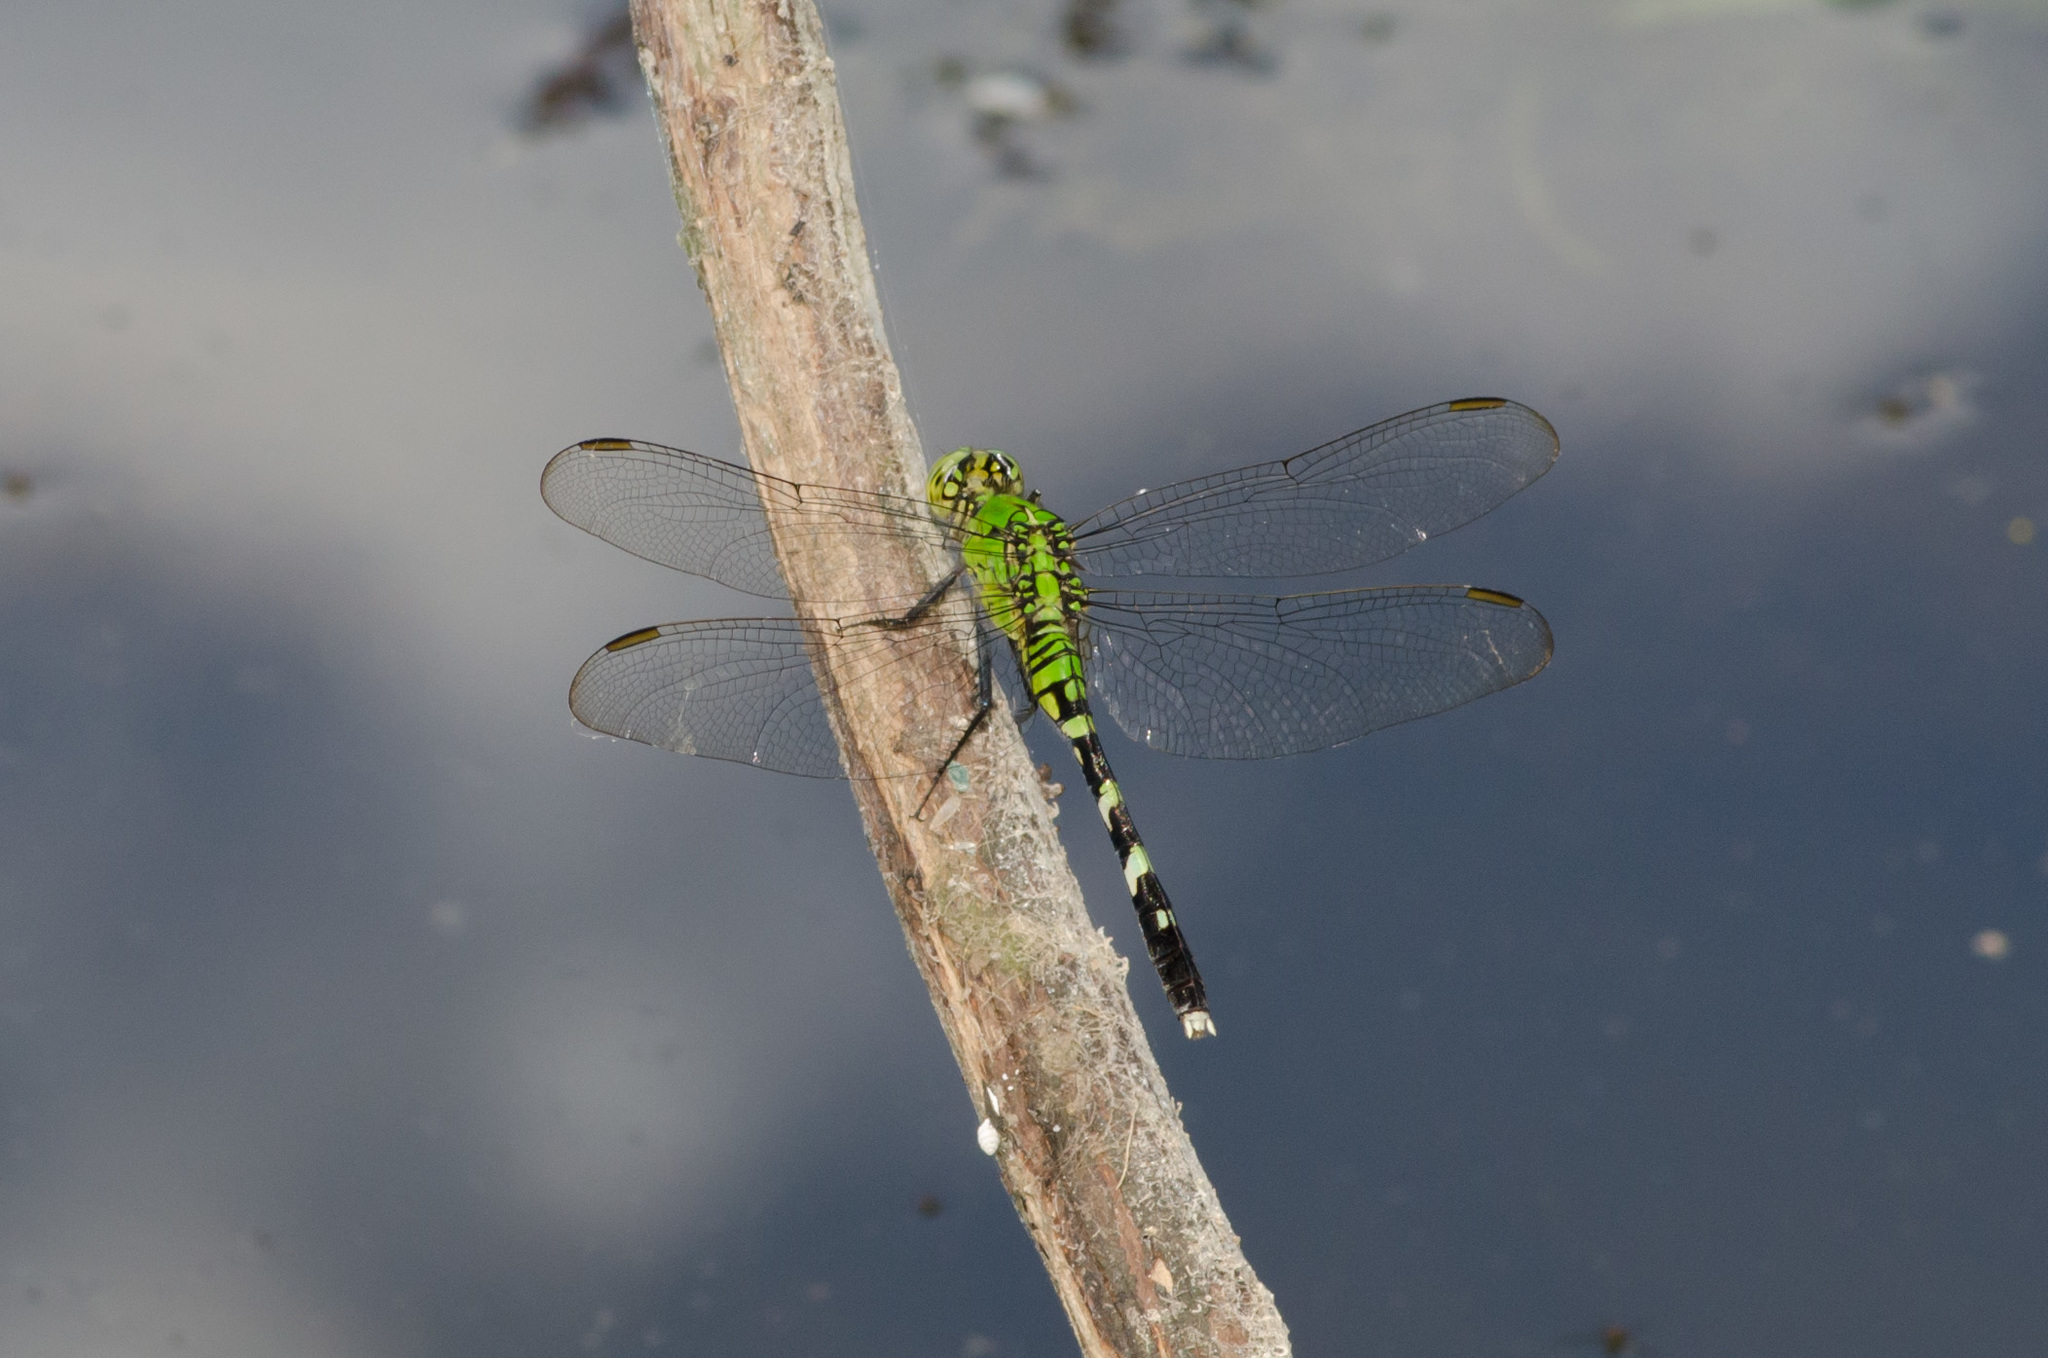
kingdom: Animalia
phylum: Arthropoda
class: Insecta
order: Odonata
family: Libellulidae
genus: Erythemis
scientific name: Erythemis simplicicollis
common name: Eastern pondhawk
